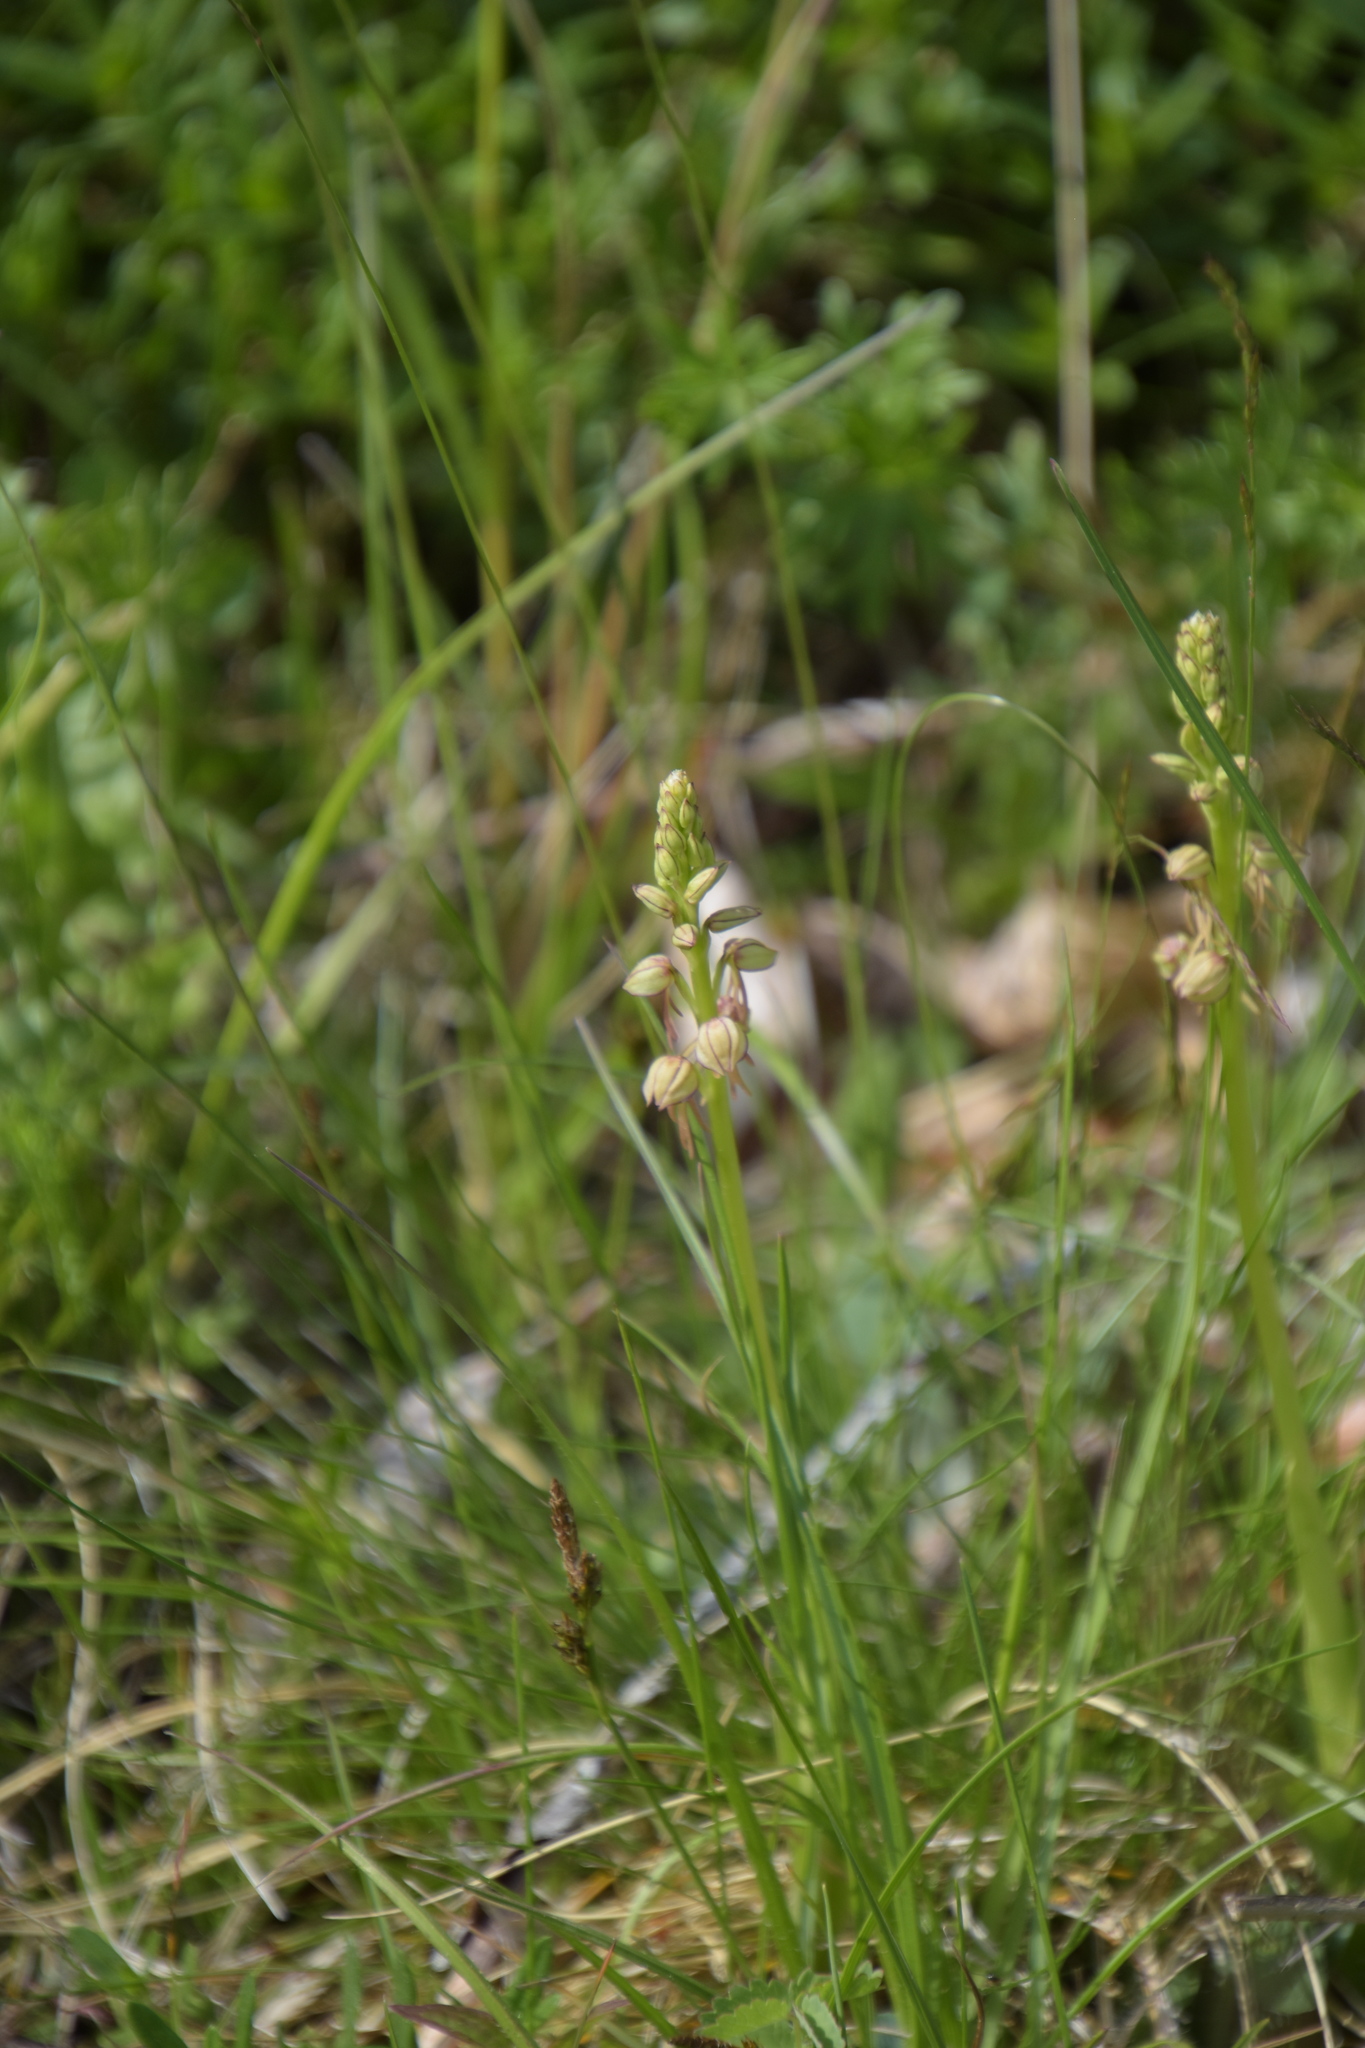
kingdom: Plantae
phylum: Tracheophyta
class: Liliopsida
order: Asparagales
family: Orchidaceae
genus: Orchis
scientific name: Orchis anthropophora
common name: Man orchid
